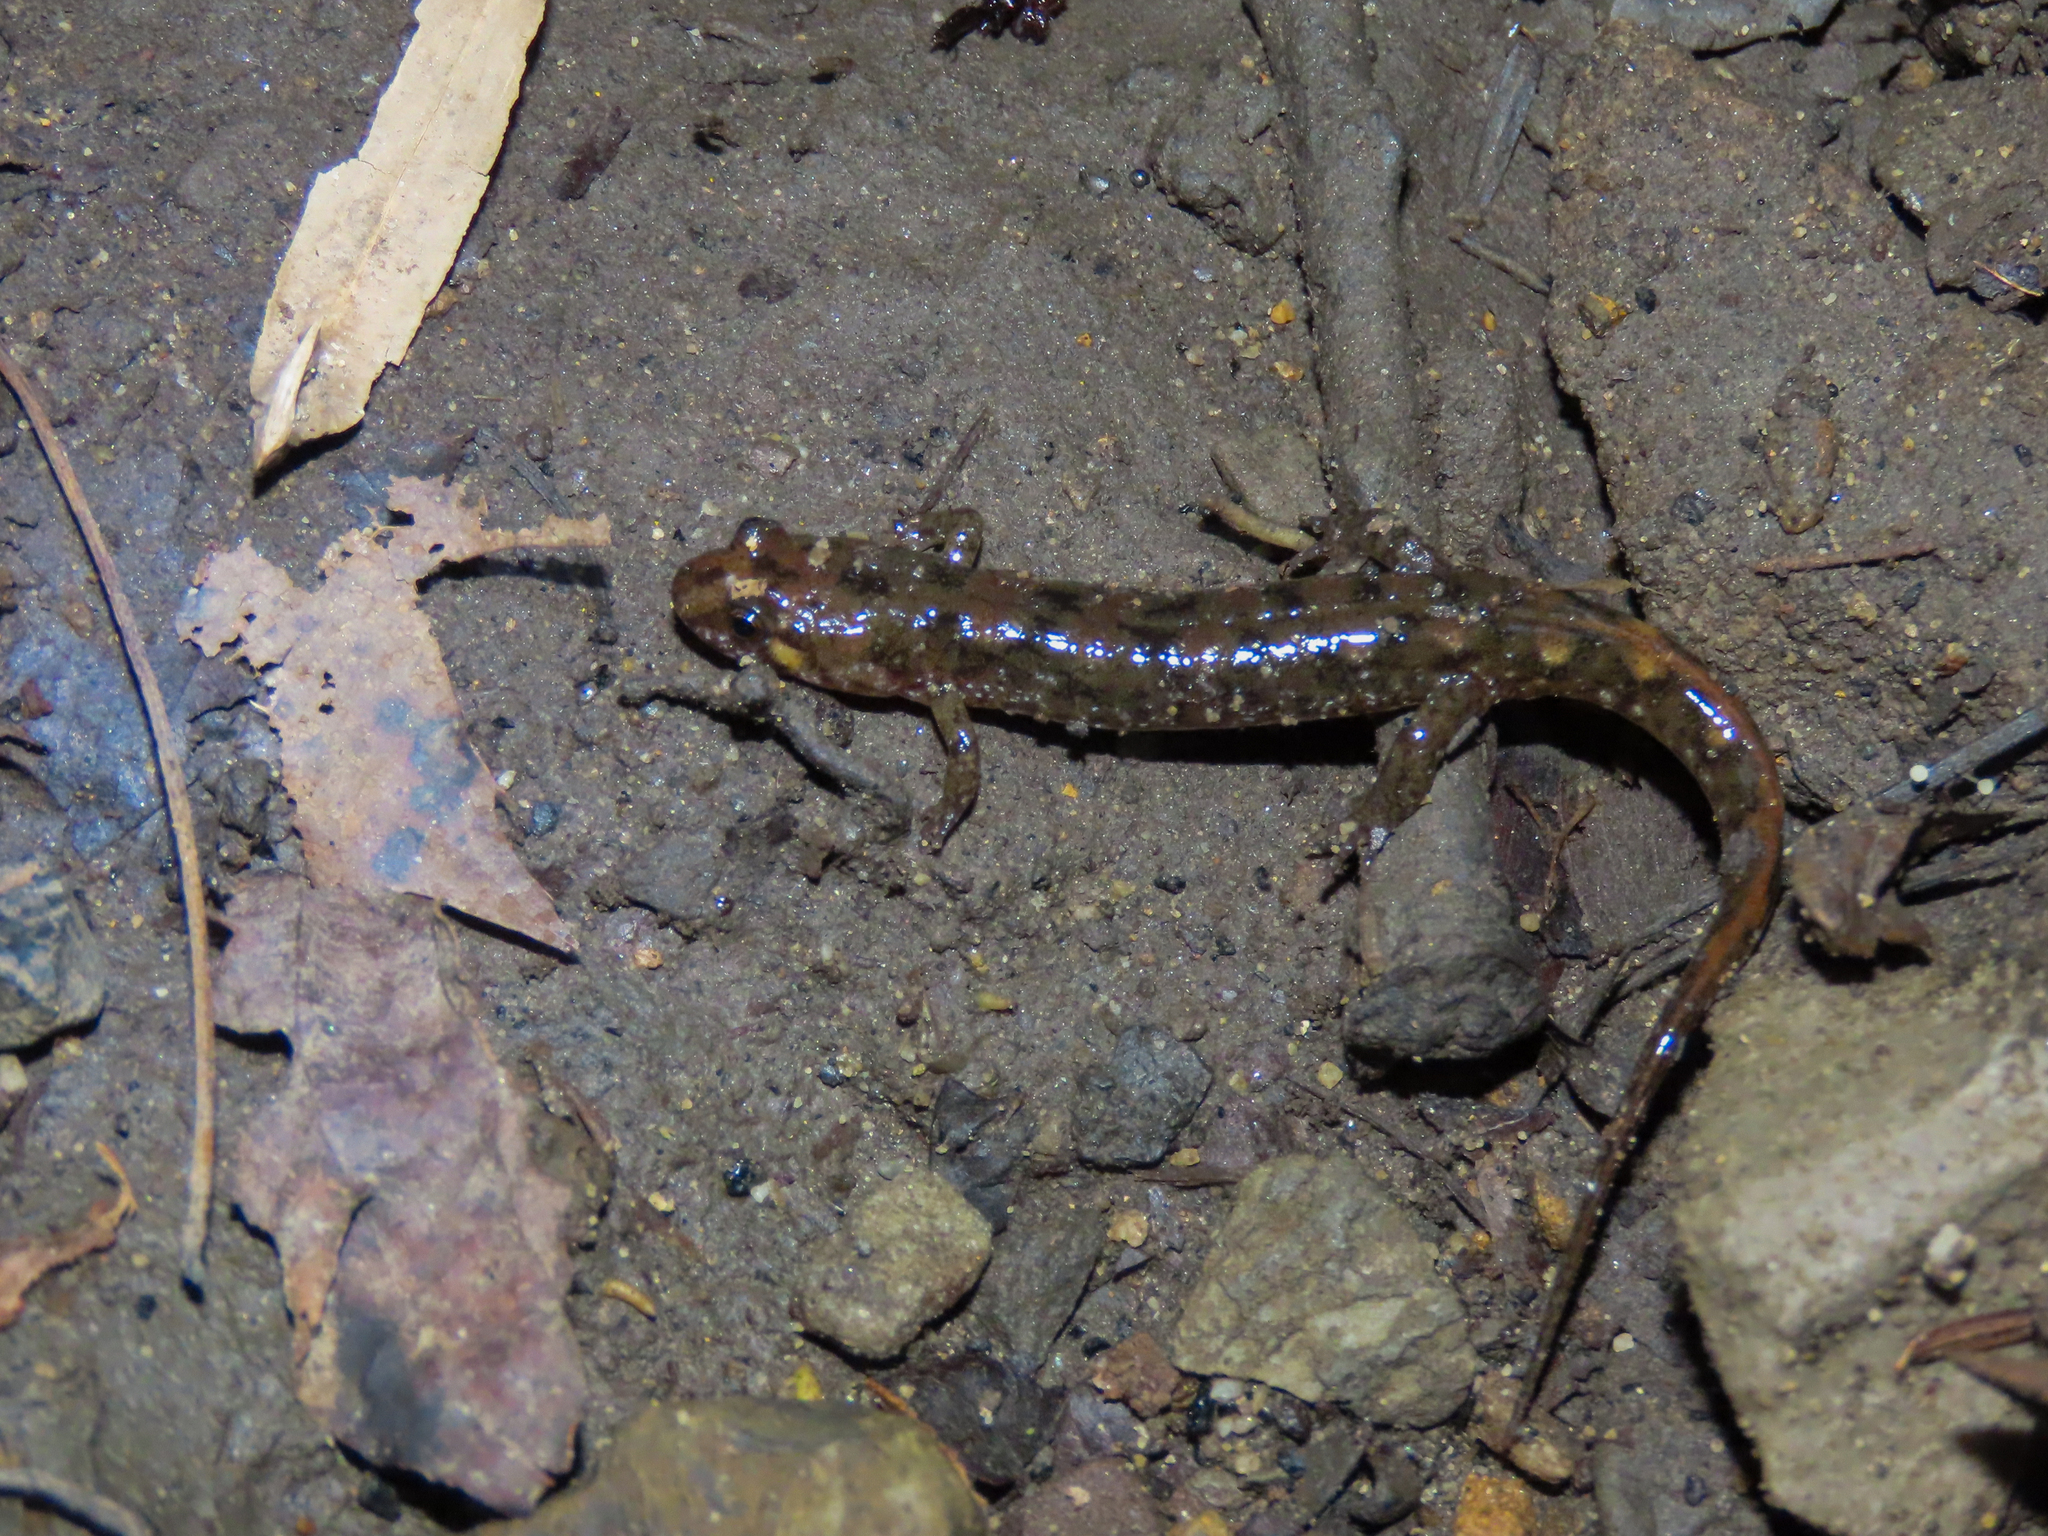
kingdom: Animalia
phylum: Chordata
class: Amphibia
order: Caudata
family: Plethodontidae
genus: Desmognathus
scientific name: Desmognathus monticola
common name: Seal salamander
